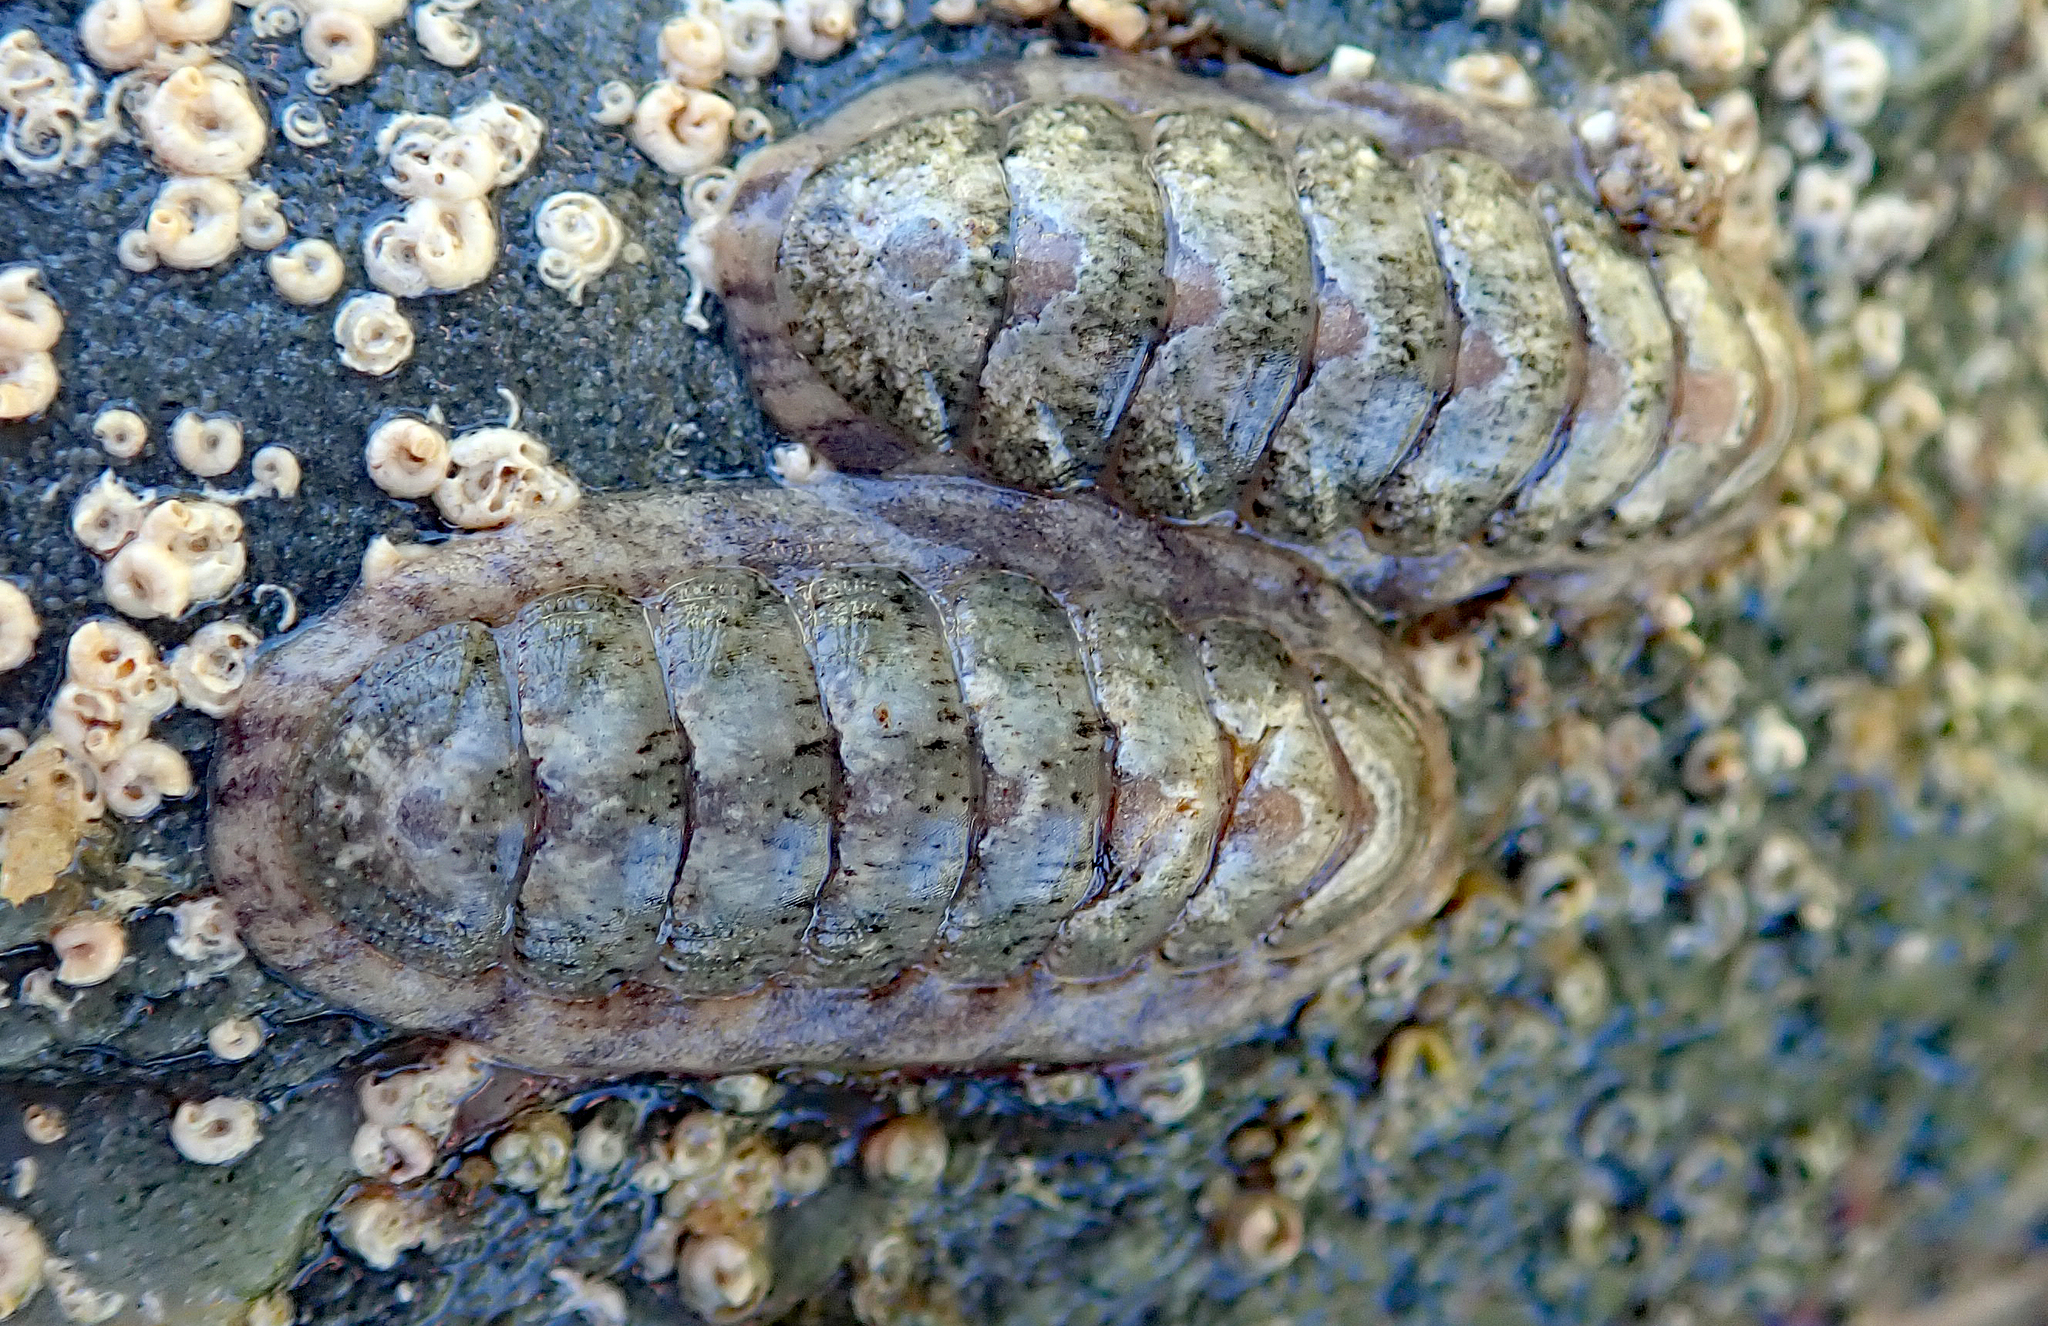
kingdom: Animalia
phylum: Mollusca
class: Polyplacophora
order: Chitonida
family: Ischnochitonidae
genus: Ischnochiton
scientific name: Ischnochiton maorianus
